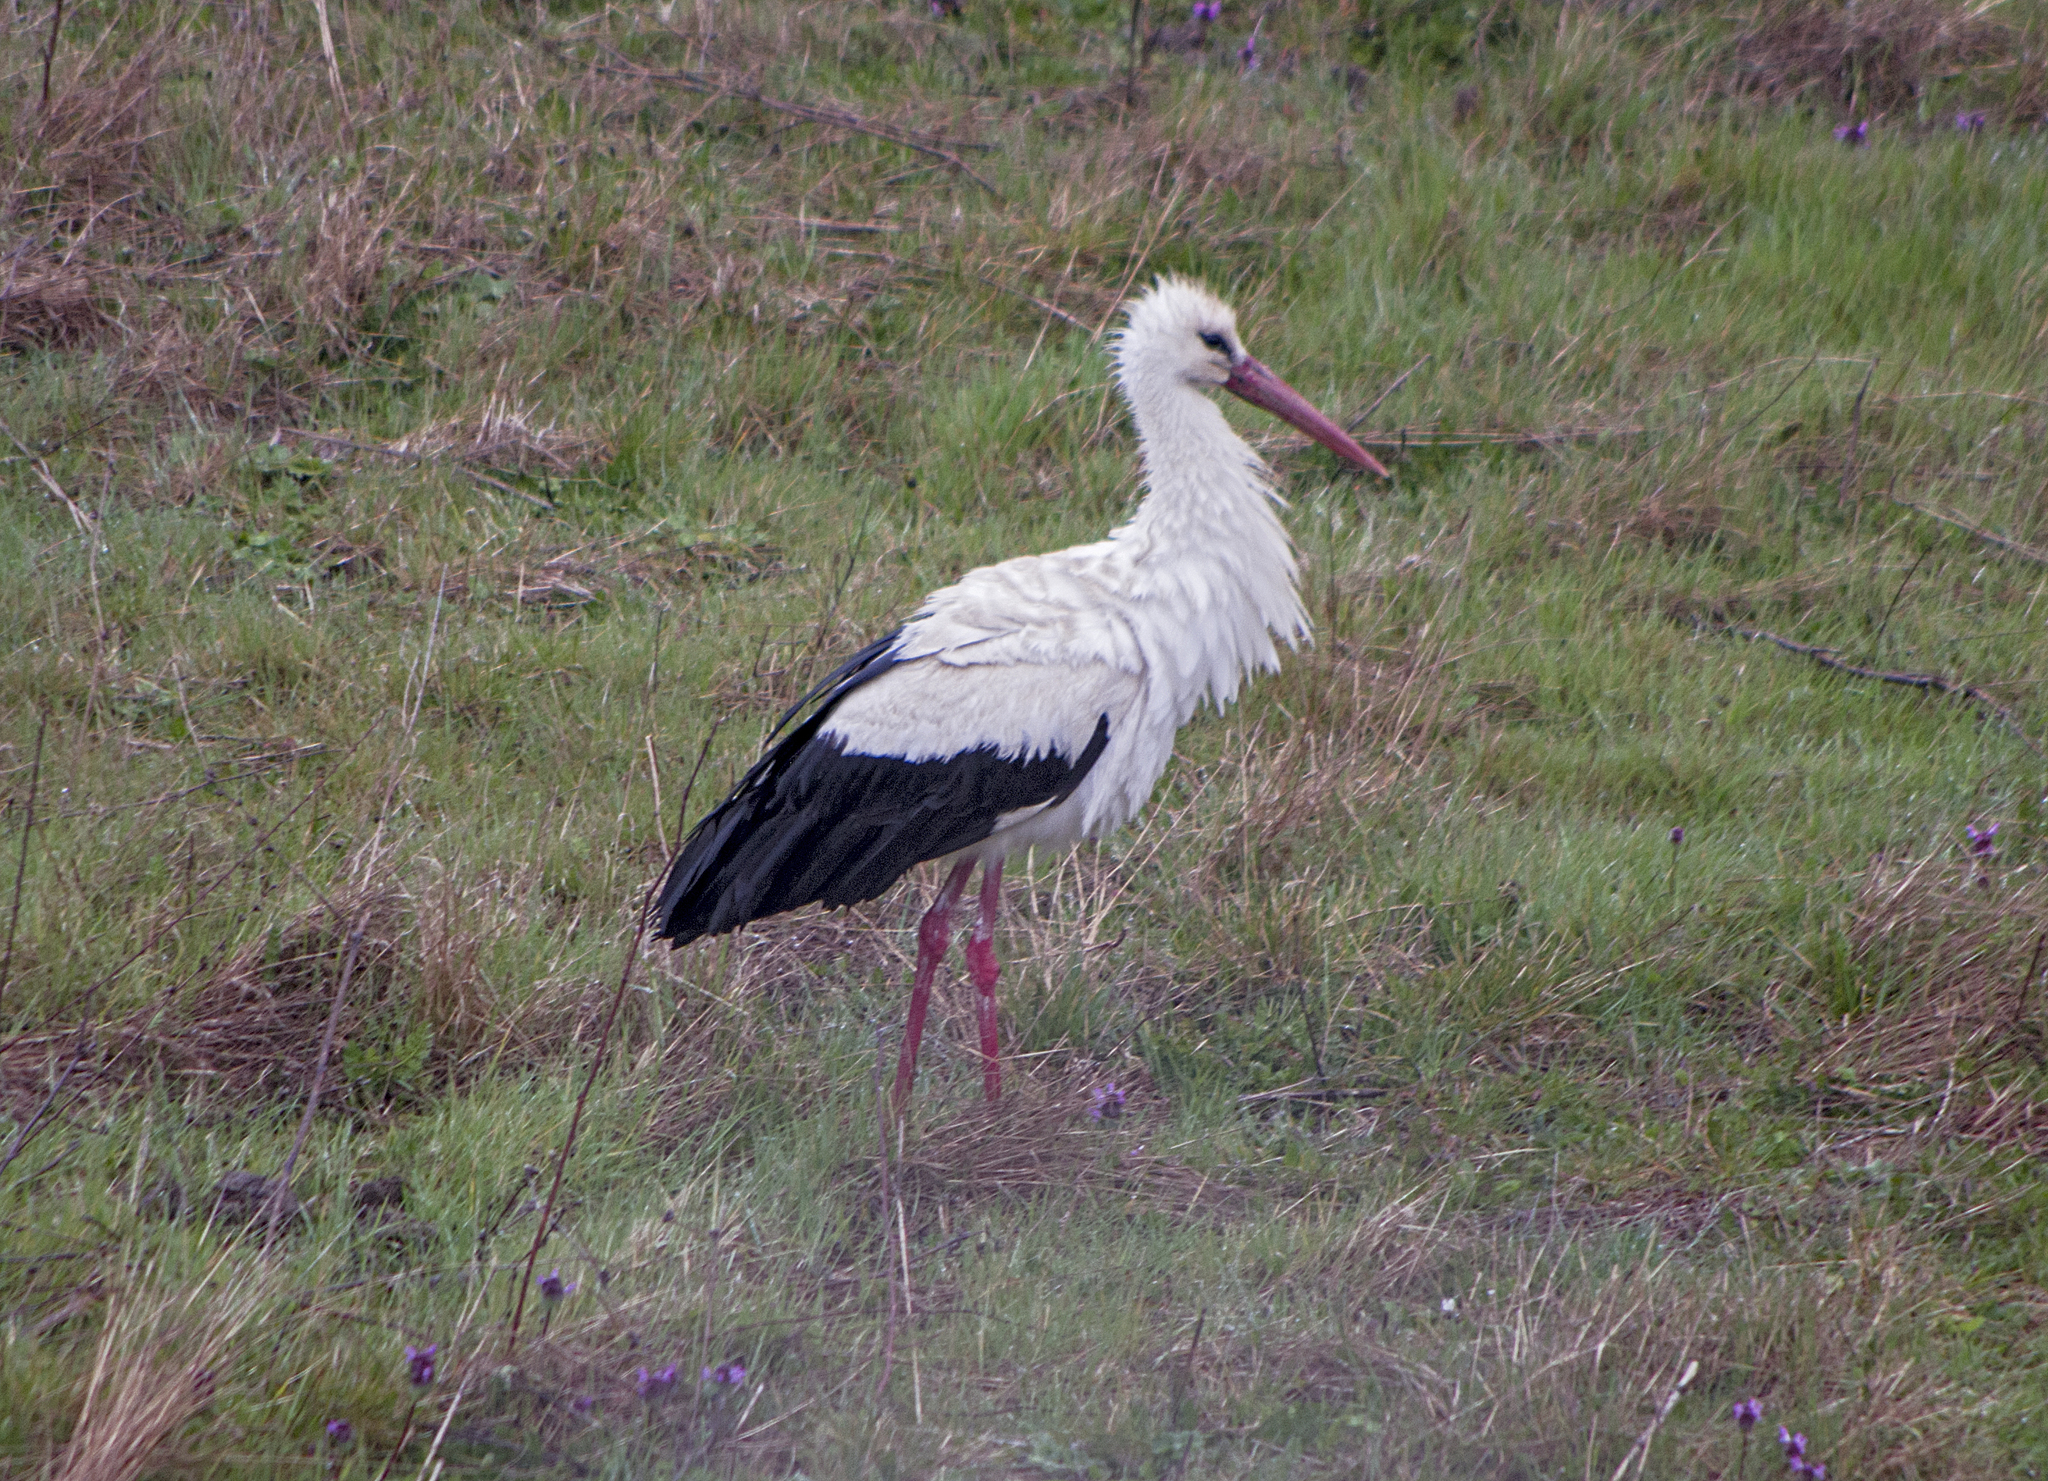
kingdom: Animalia
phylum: Chordata
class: Aves
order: Ciconiiformes
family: Ciconiidae
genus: Ciconia
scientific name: Ciconia ciconia
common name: White stork
